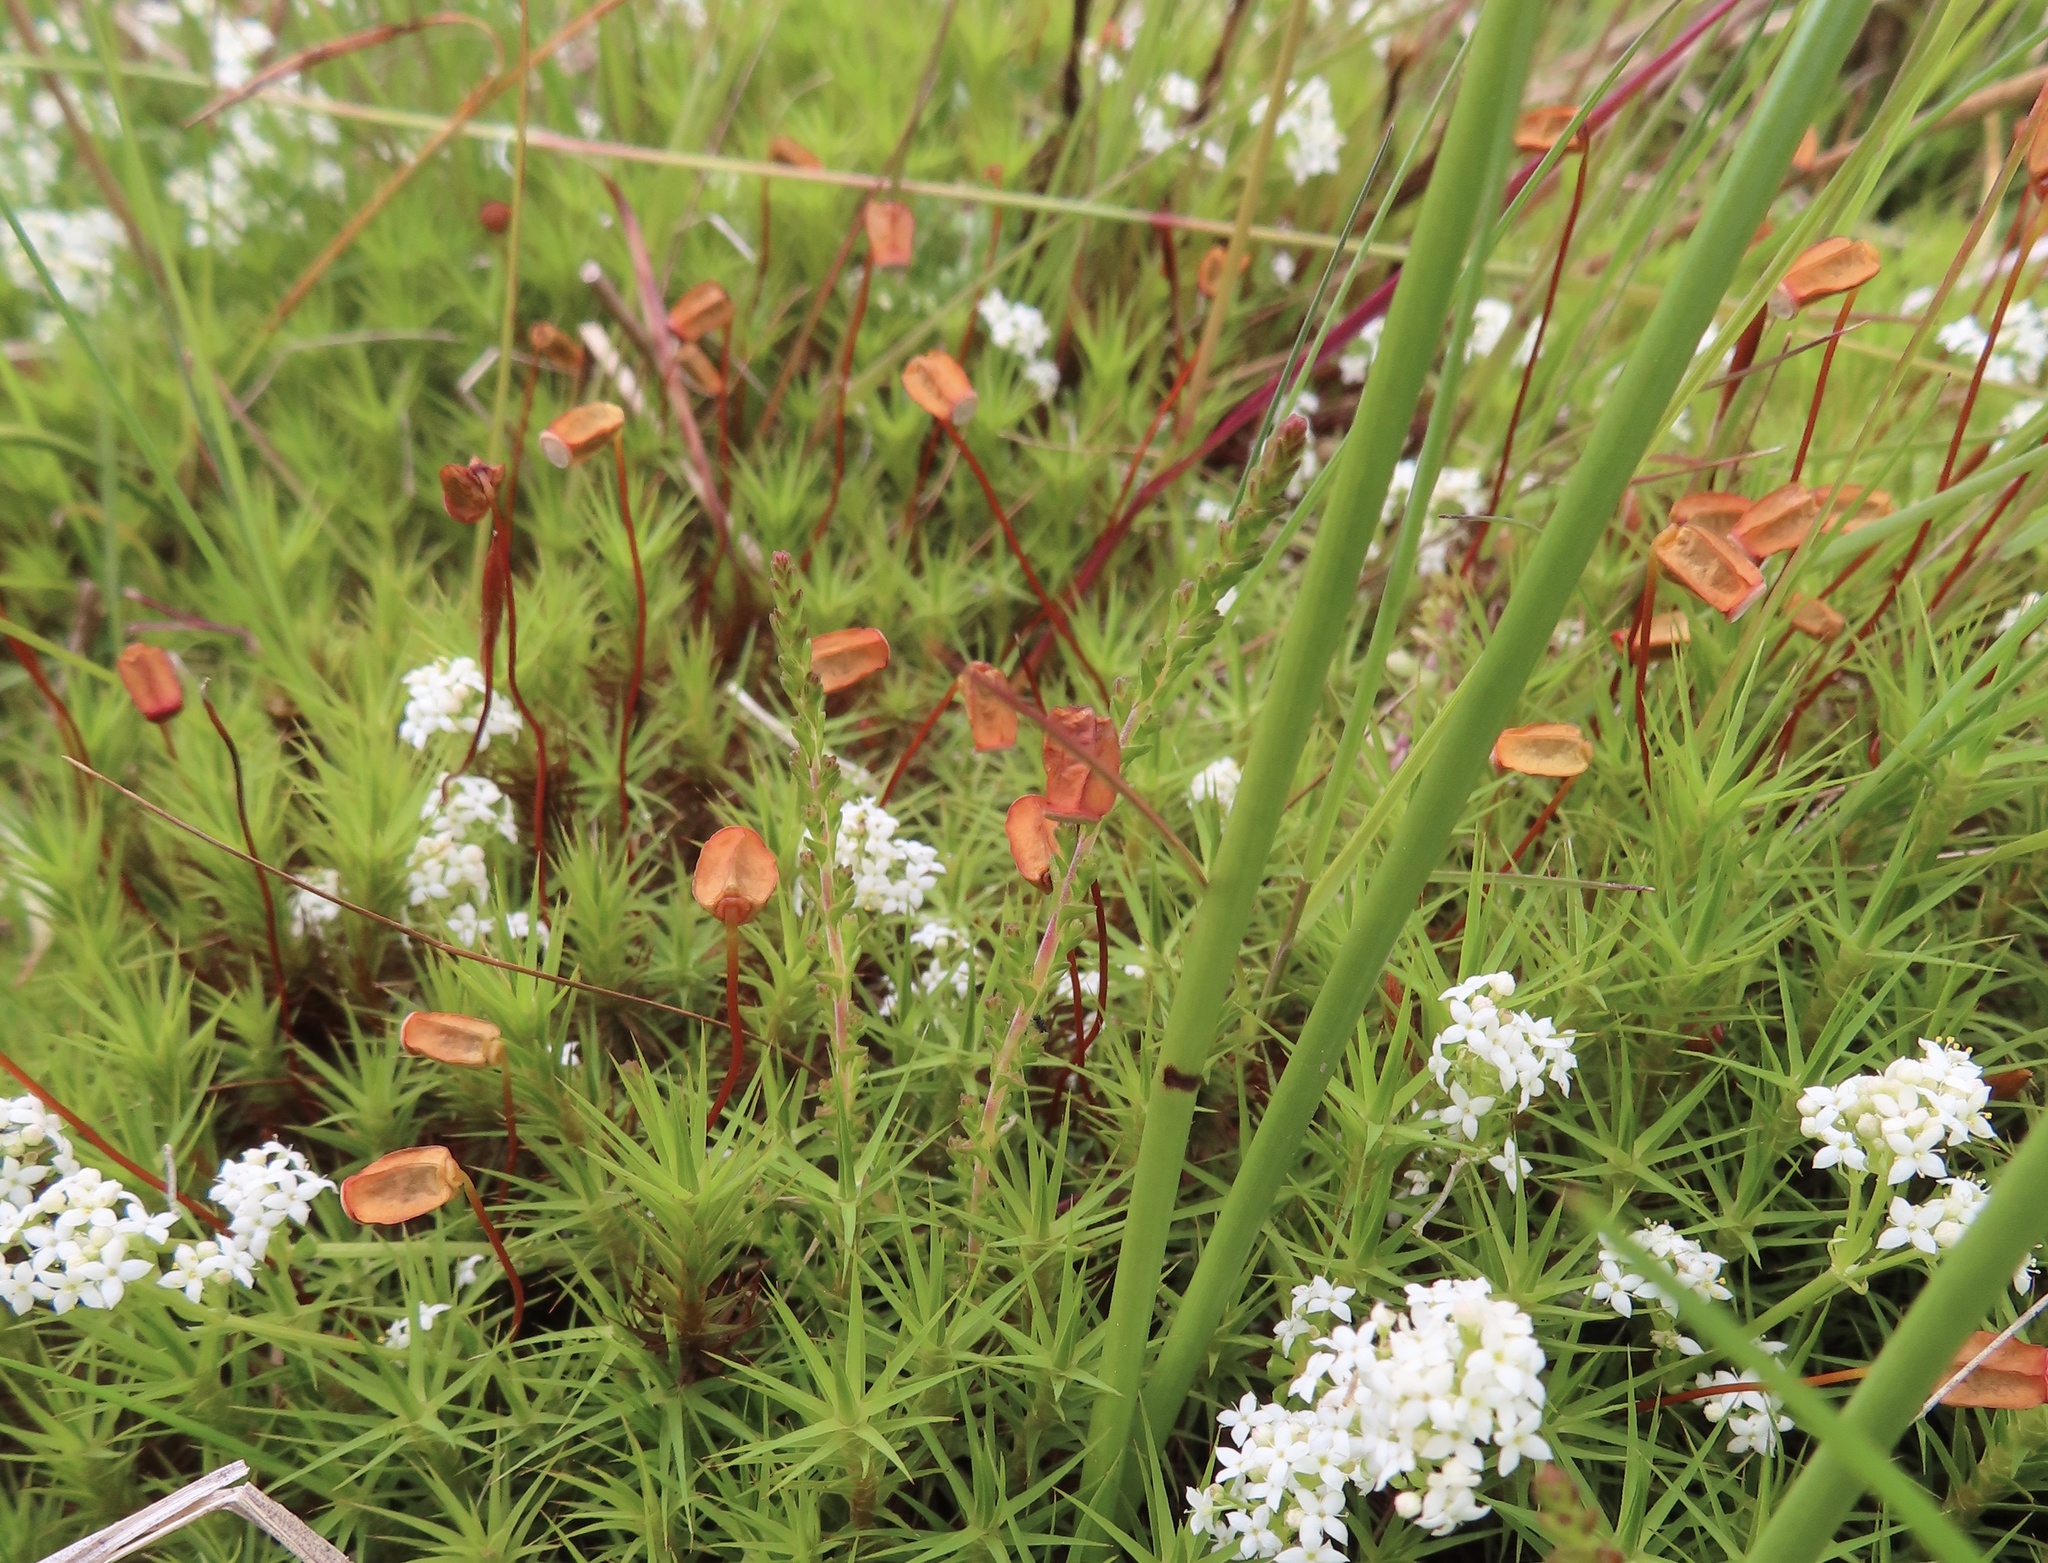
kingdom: Plantae
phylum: Bryophyta
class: Polytrichopsida
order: Polytrichales
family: Polytrichaceae
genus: Polytrichum
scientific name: Polytrichum commune
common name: Common haircap
